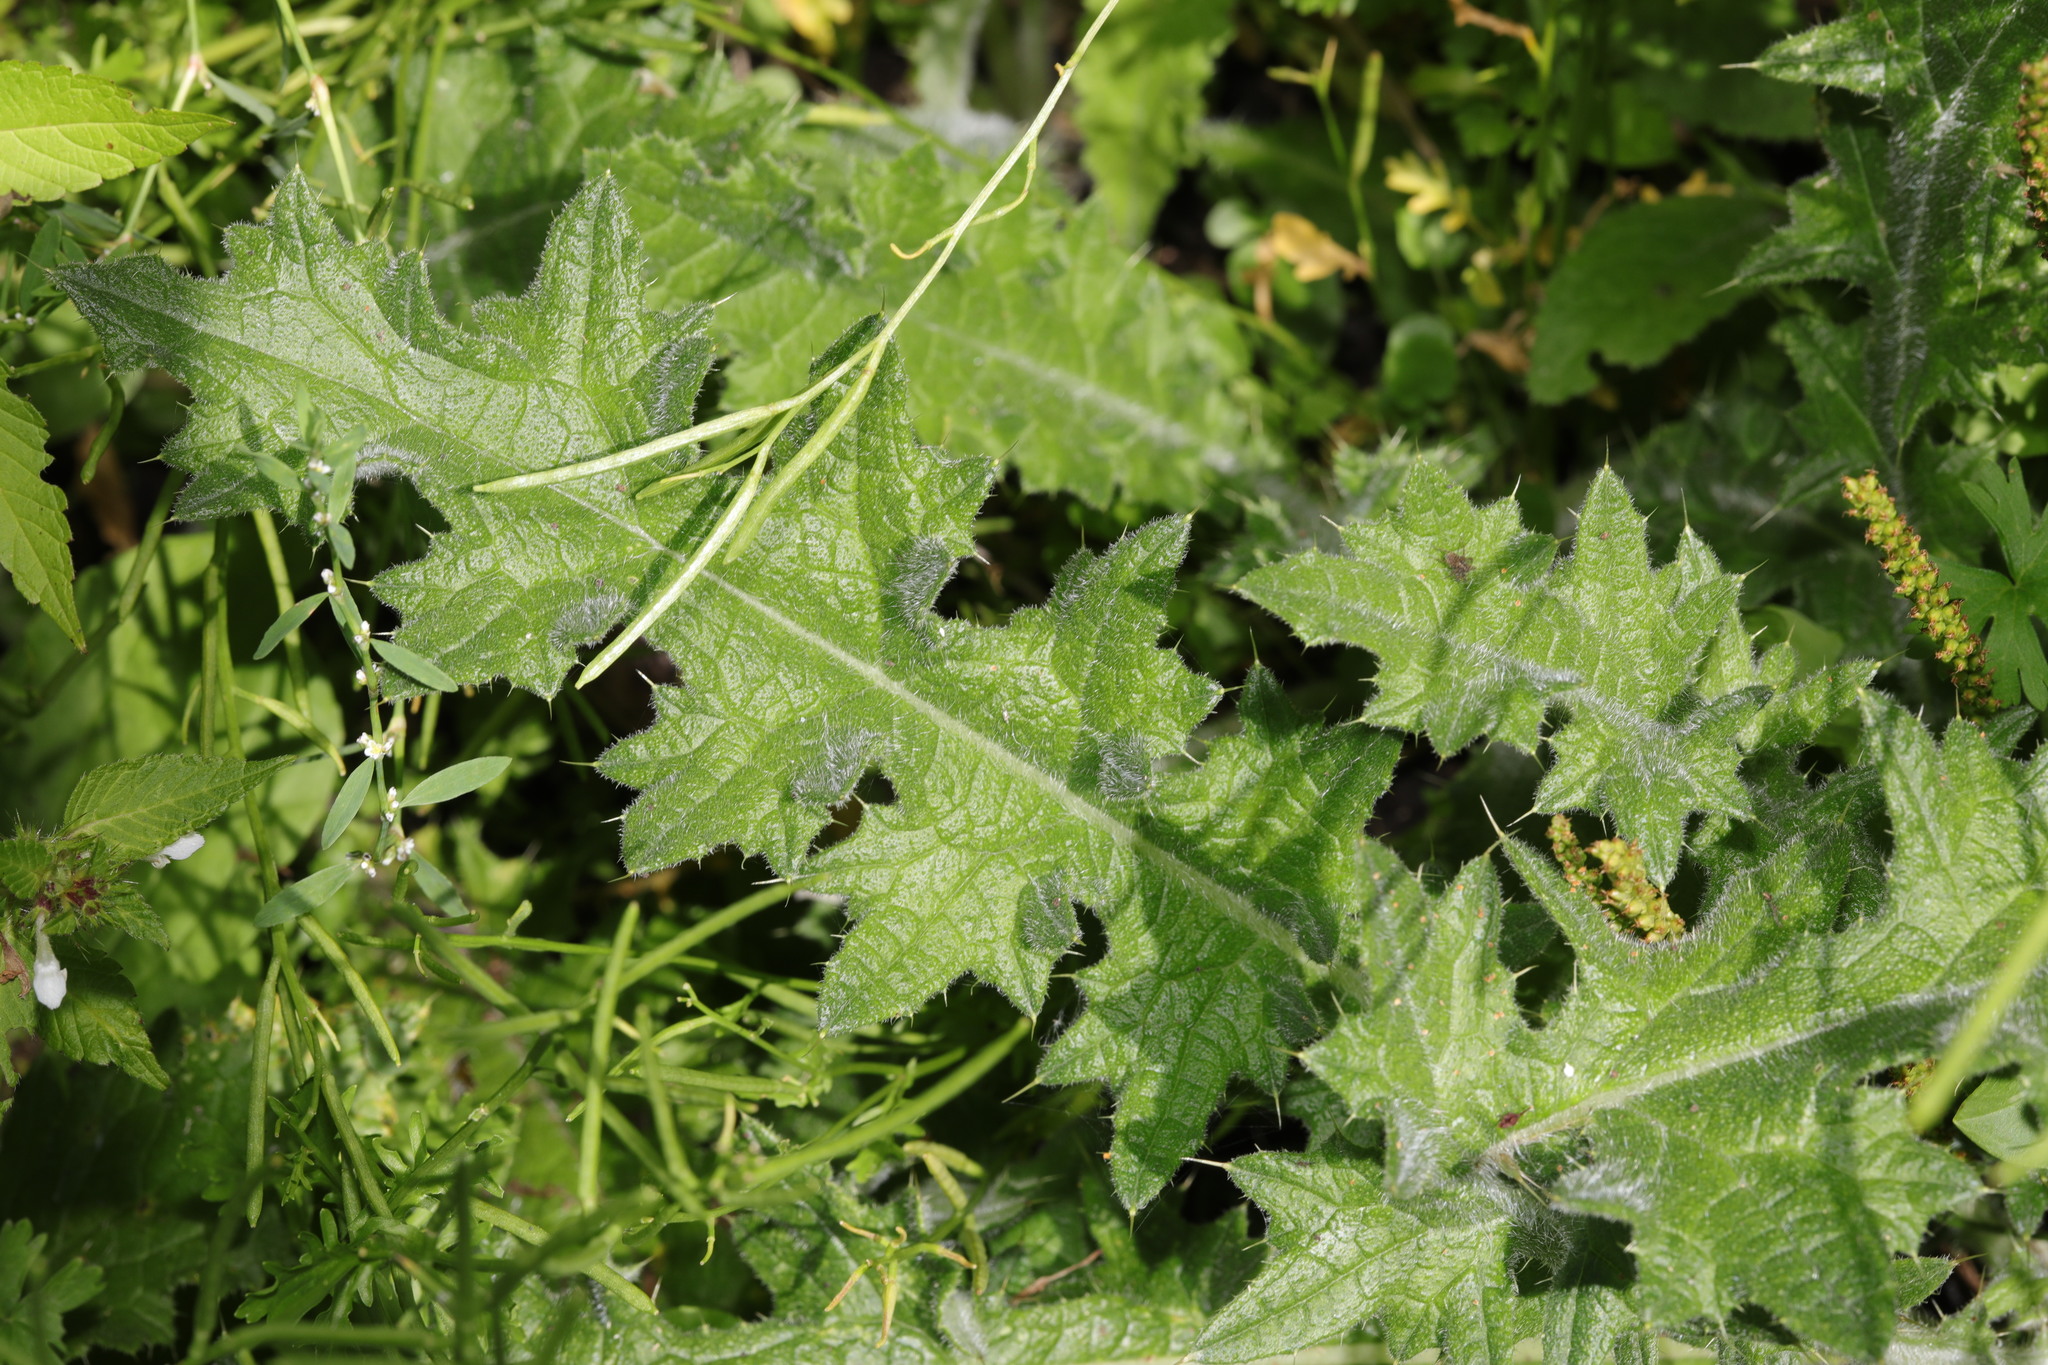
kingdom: Plantae
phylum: Tracheophyta
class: Magnoliopsida
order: Asterales
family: Asteraceae
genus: Cirsium
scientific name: Cirsium vulgare
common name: Bull thistle
